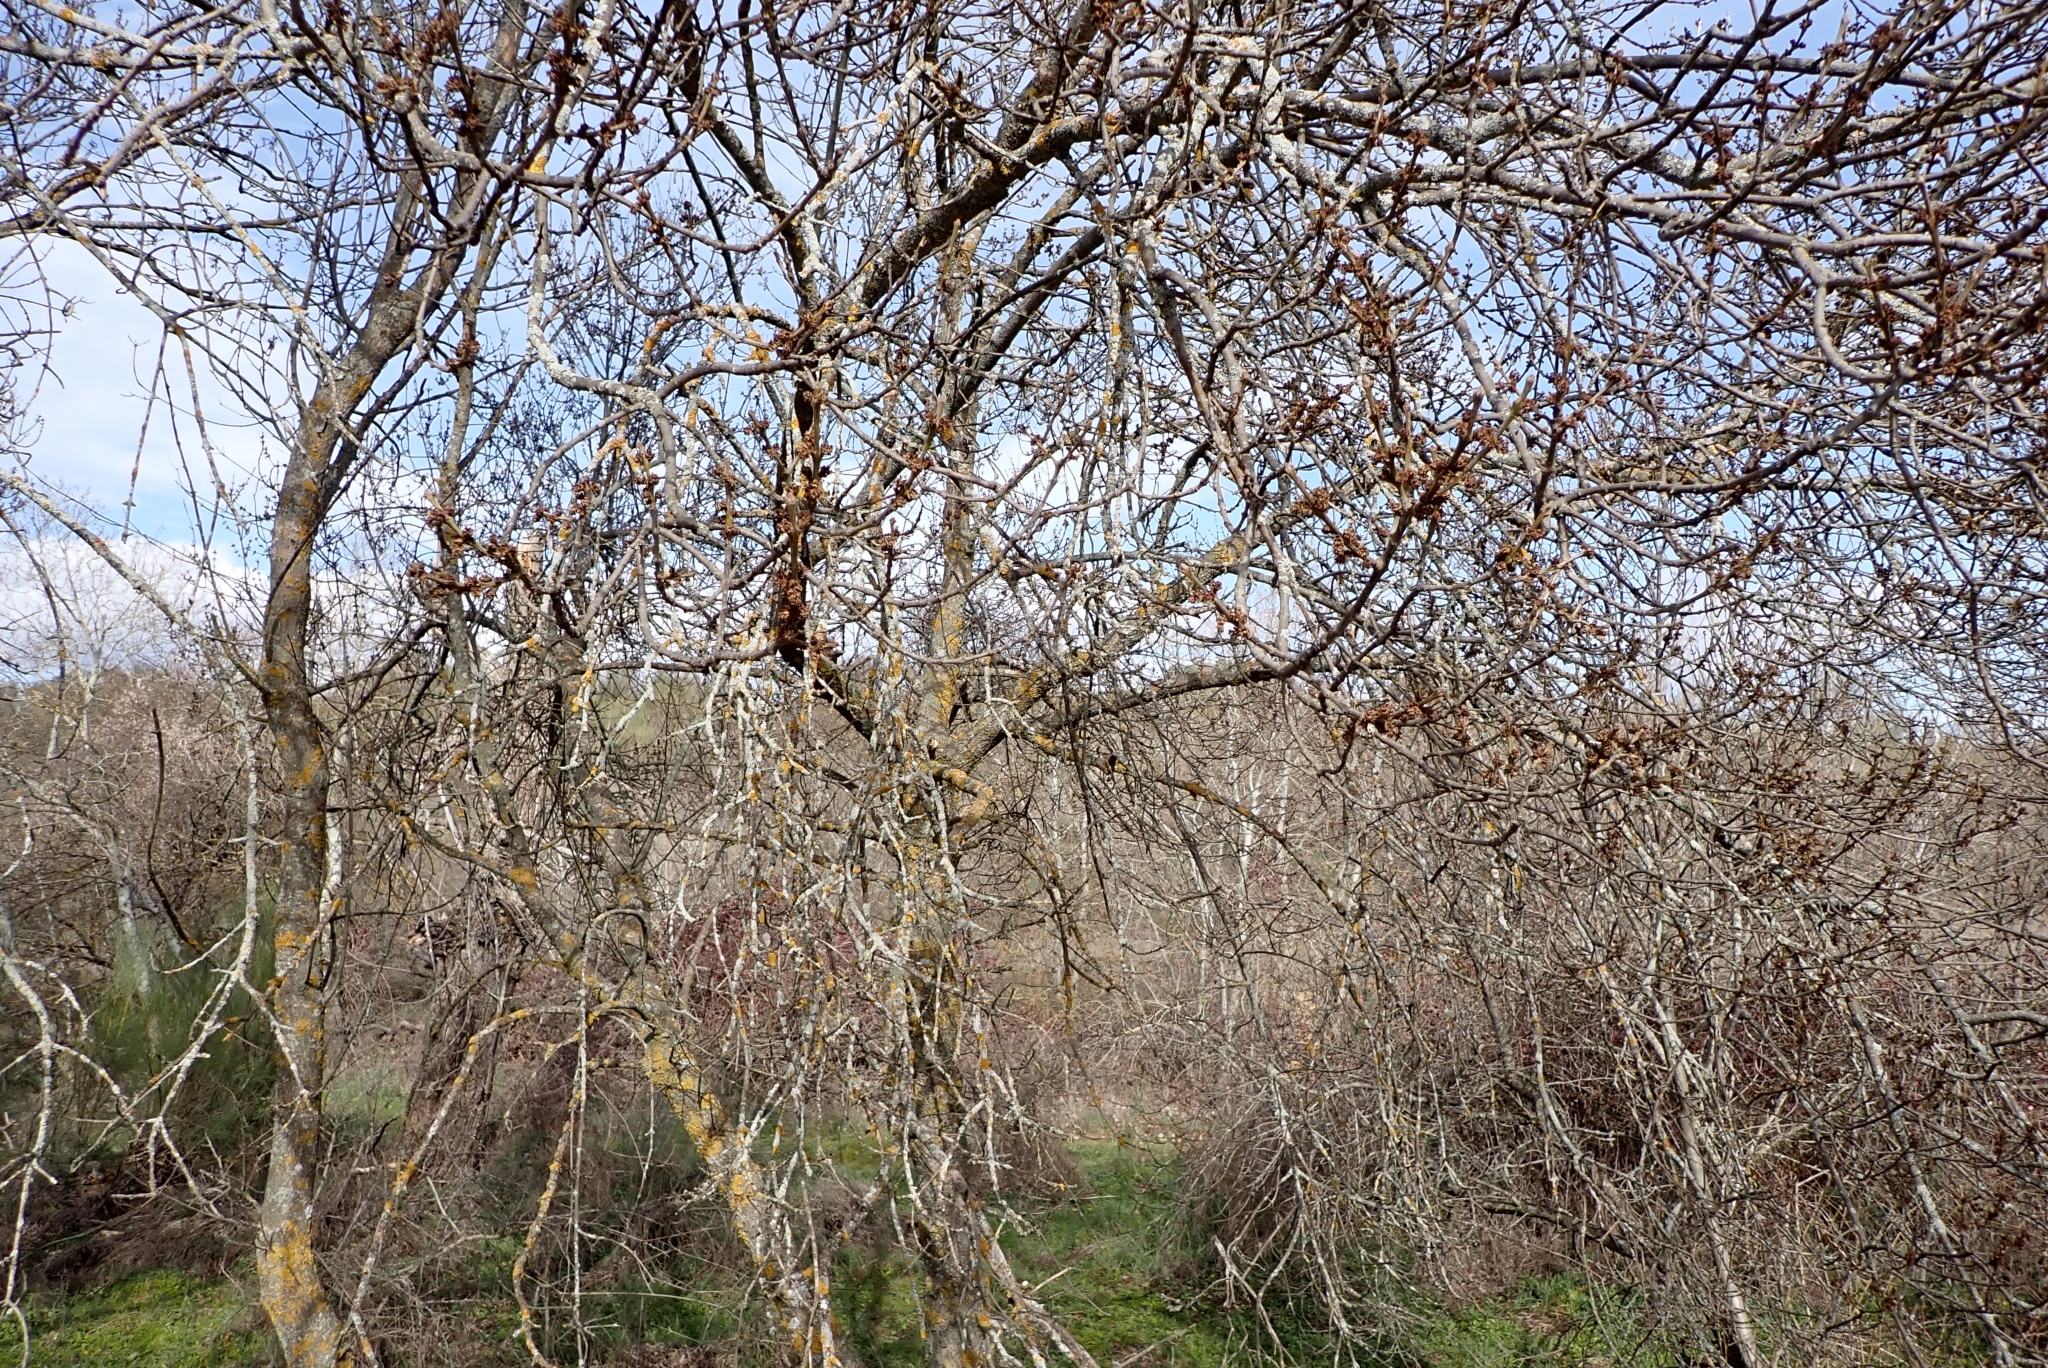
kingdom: Plantae
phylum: Tracheophyta
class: Magnoliopsida
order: Lamiales
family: Oleaceae
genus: Fraxinus
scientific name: Fraxinus angustifolia
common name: Narrow-leafed ash
